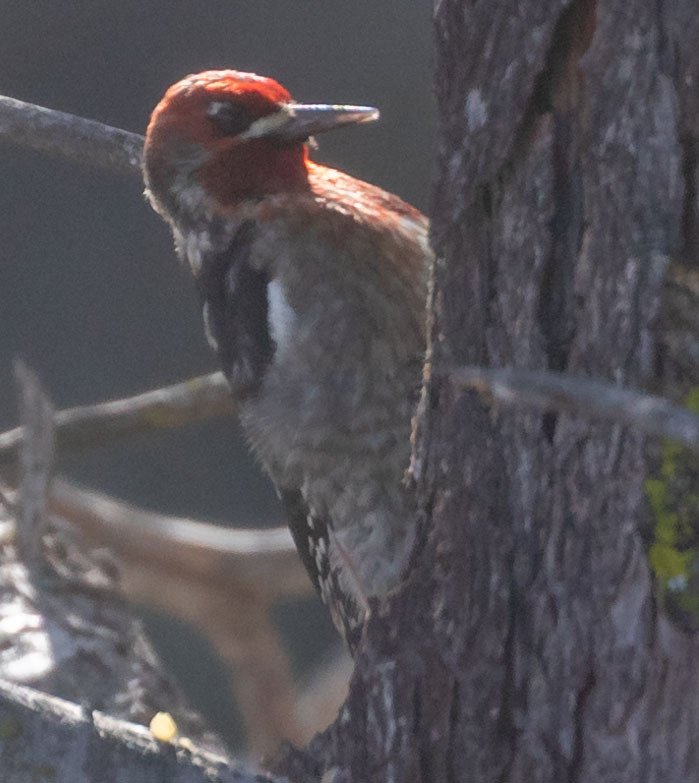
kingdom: Animalia
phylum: Chordata
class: Aves
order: Piciformes
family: Picidae
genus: Sphyrapicus
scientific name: Sphyrapicus ruber
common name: Red-breasted sapsucker
